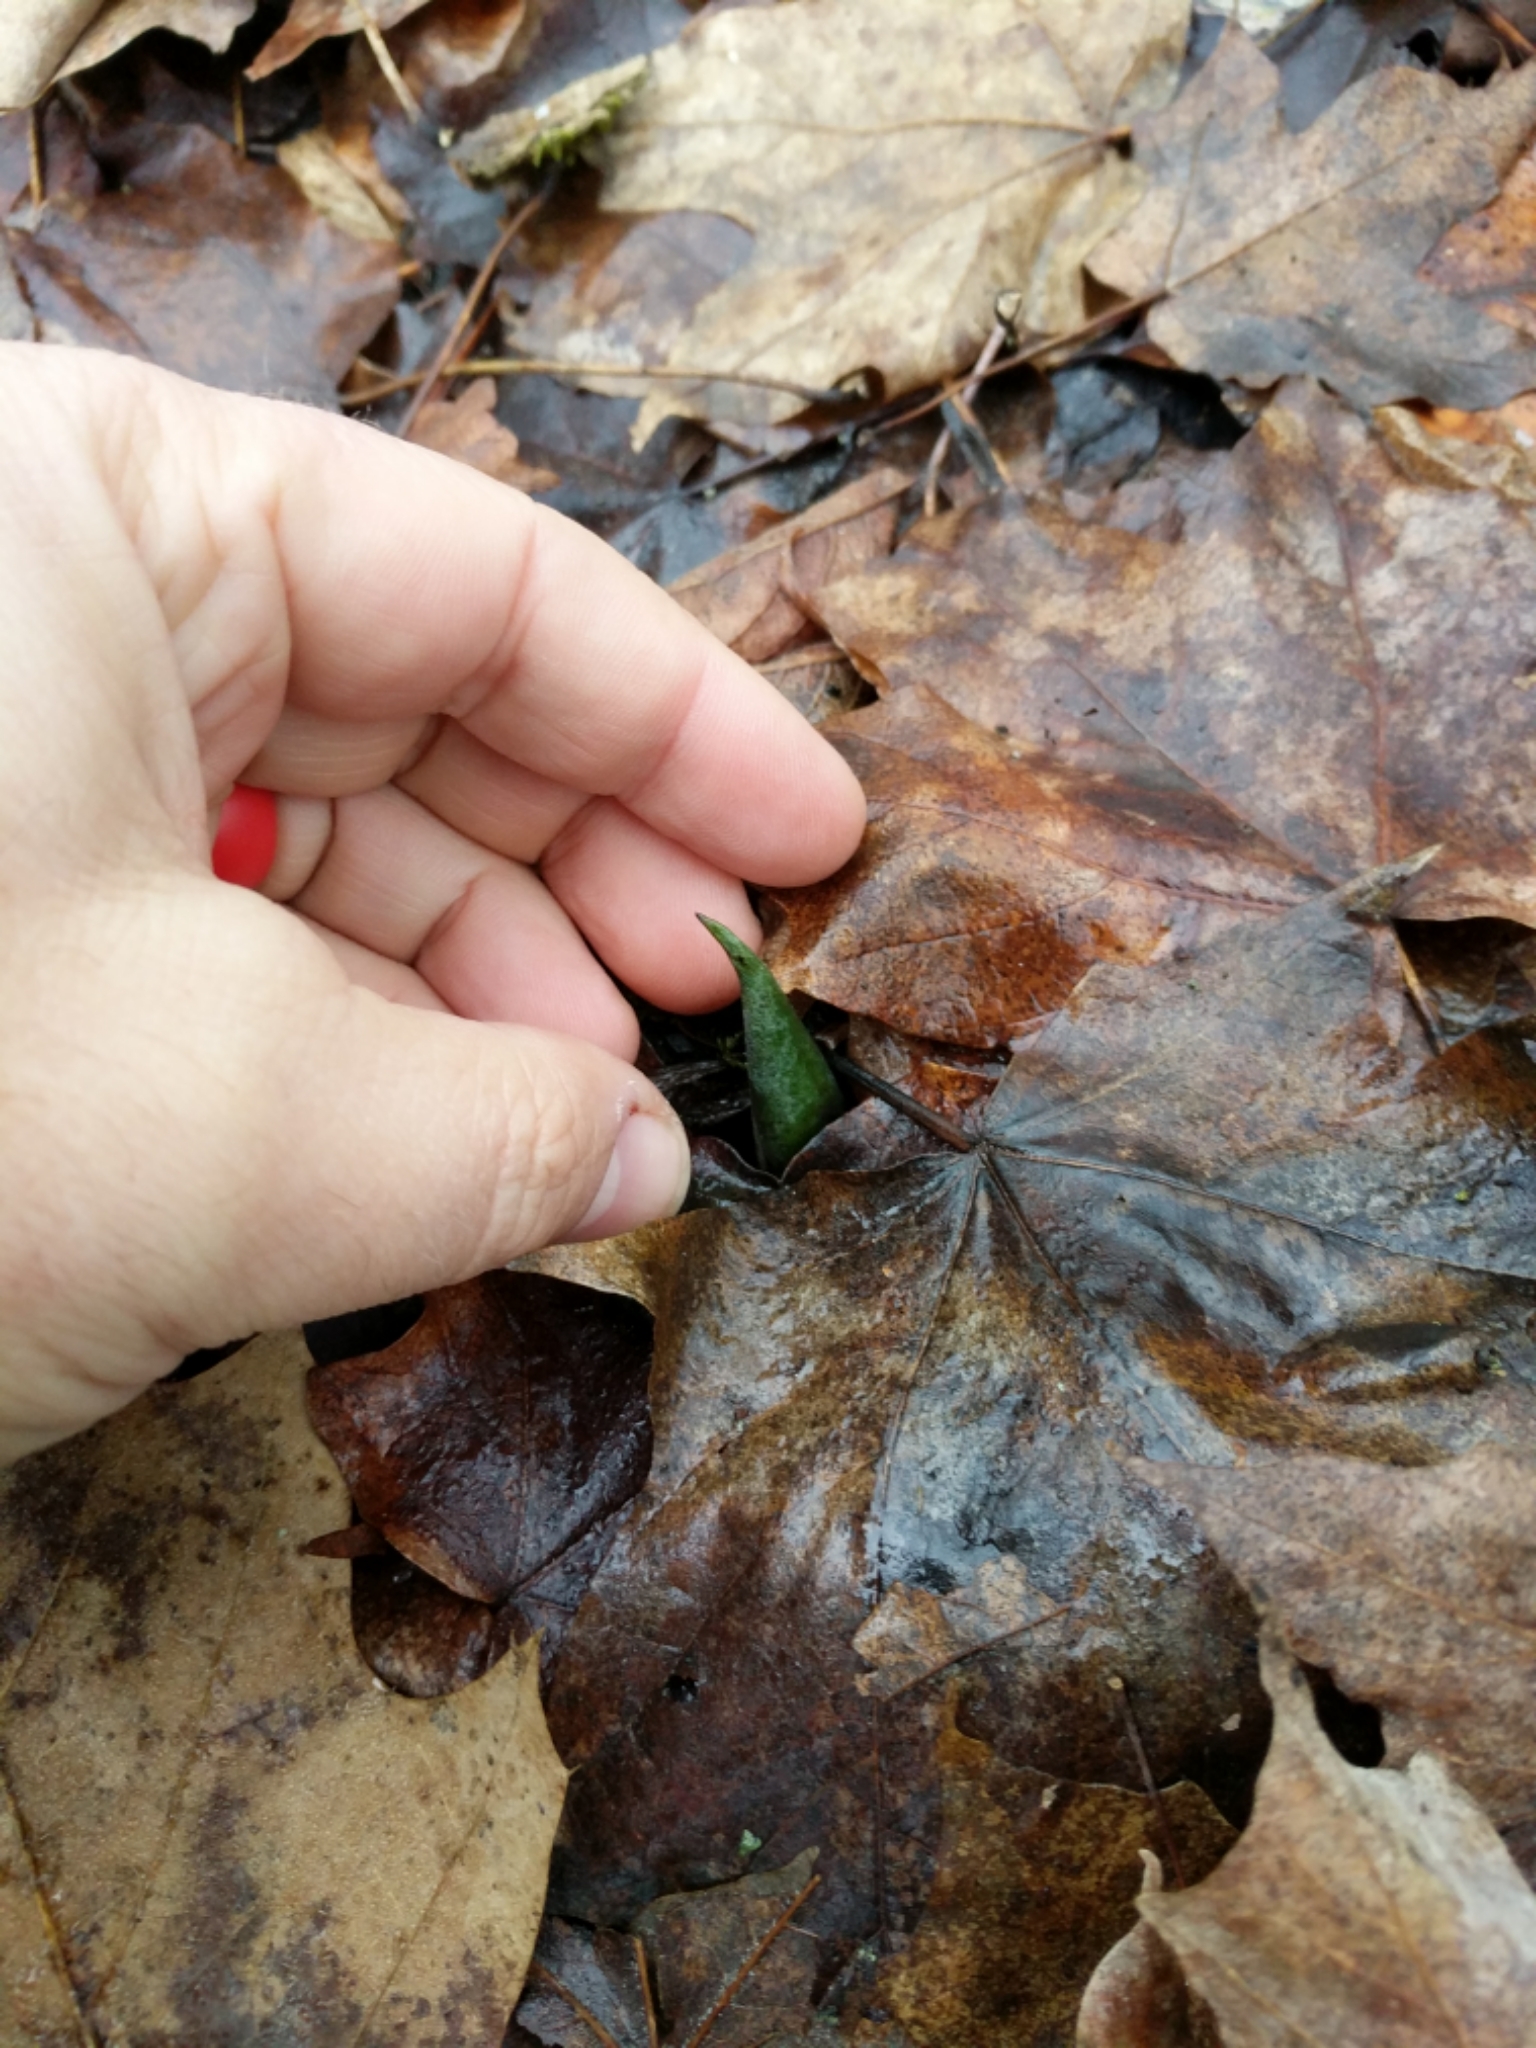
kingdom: Plantae
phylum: Tracheophyta
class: Liliopsida
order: Alismatales
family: Araceae
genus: Symplocarpus
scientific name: Symplocarpus foetidus
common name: Eastern skunk cabbage
